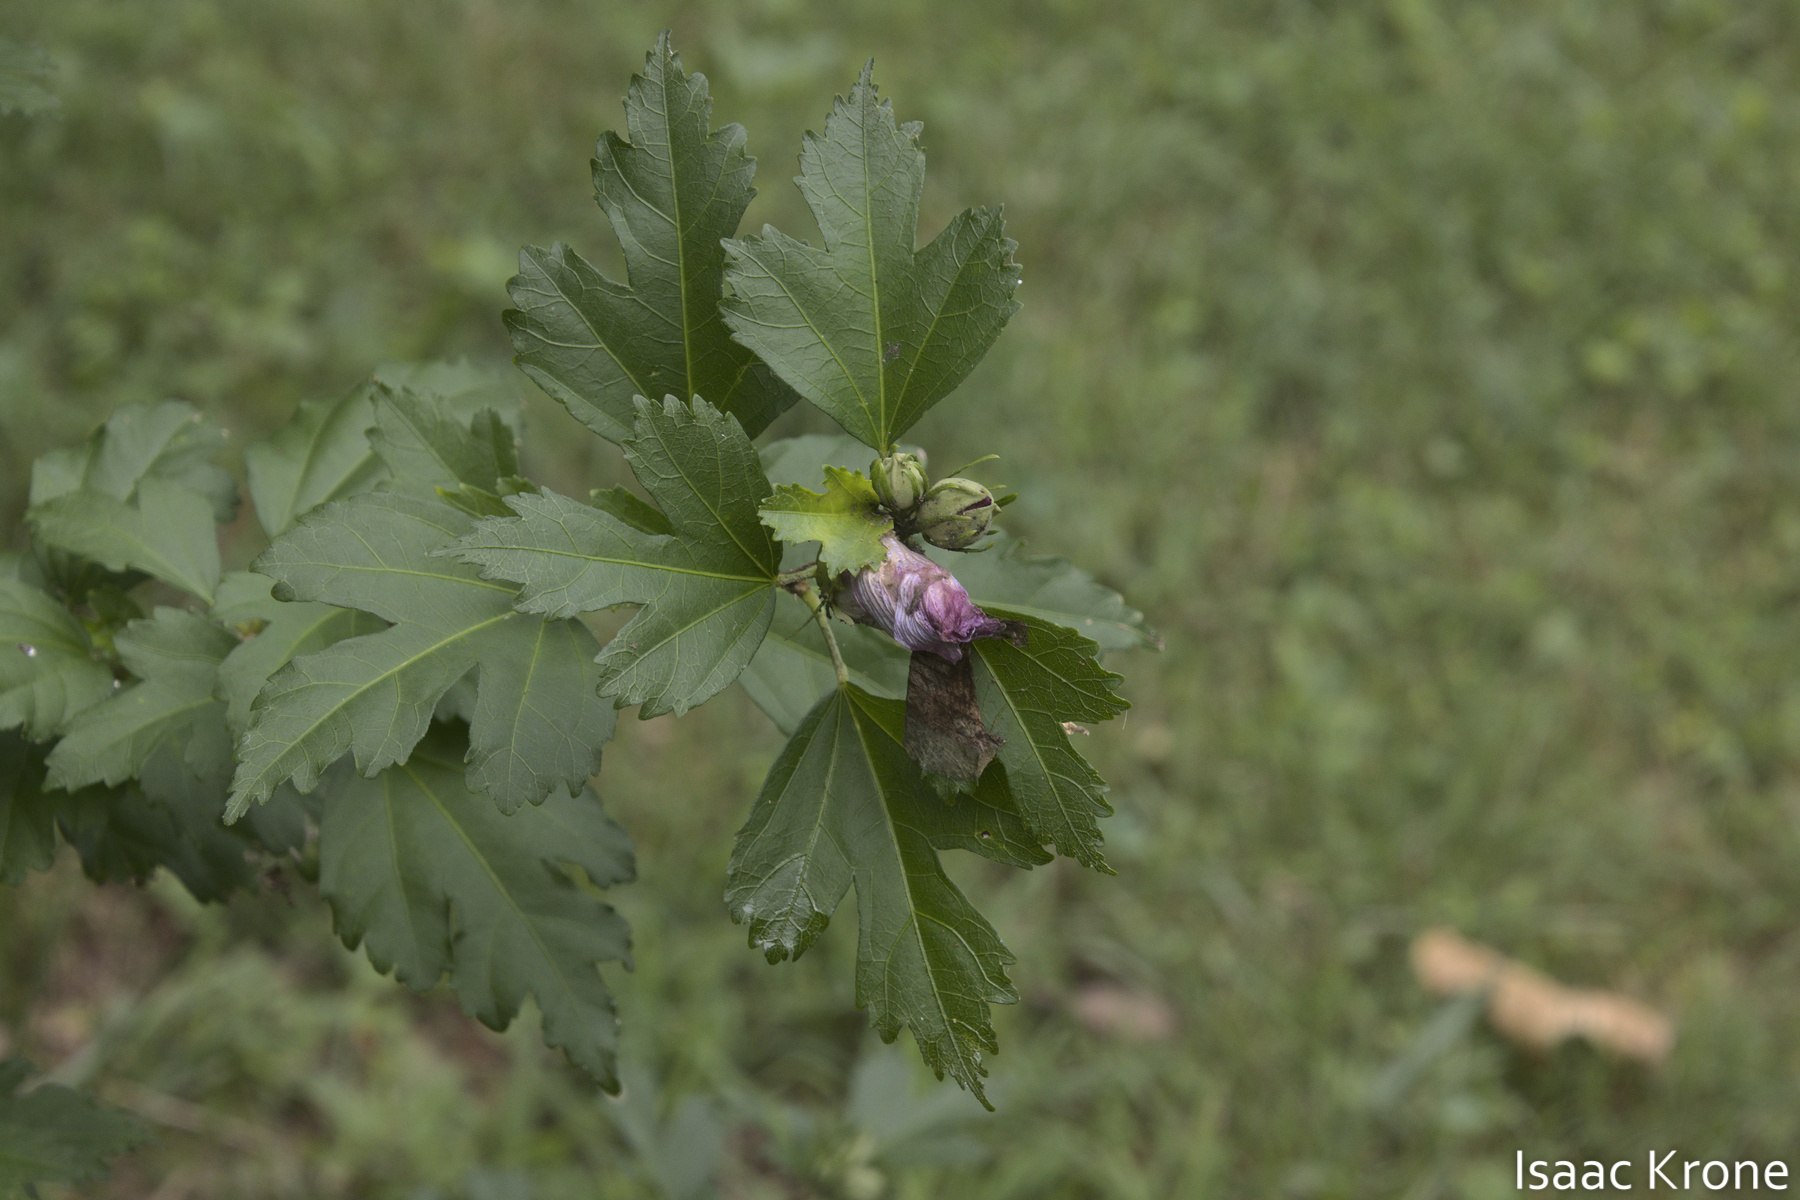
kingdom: Plantae
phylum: Tracheophyta
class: Magnoliopsida
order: Malvales
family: Malvaceae
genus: Hibiscus
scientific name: Hibiscus syriacus
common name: Syrian ketmia
